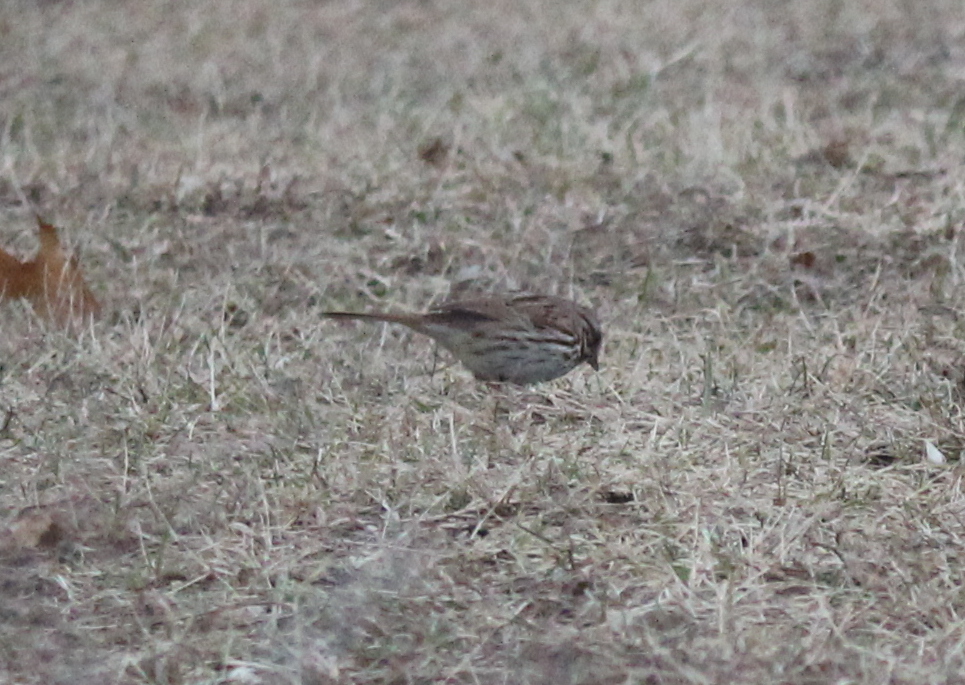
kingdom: Animalia
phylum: Chordata
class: Aves
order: Passeriformes
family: Passerellidae
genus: Melospiza
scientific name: Melospiza melodia
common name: Song sparrow
